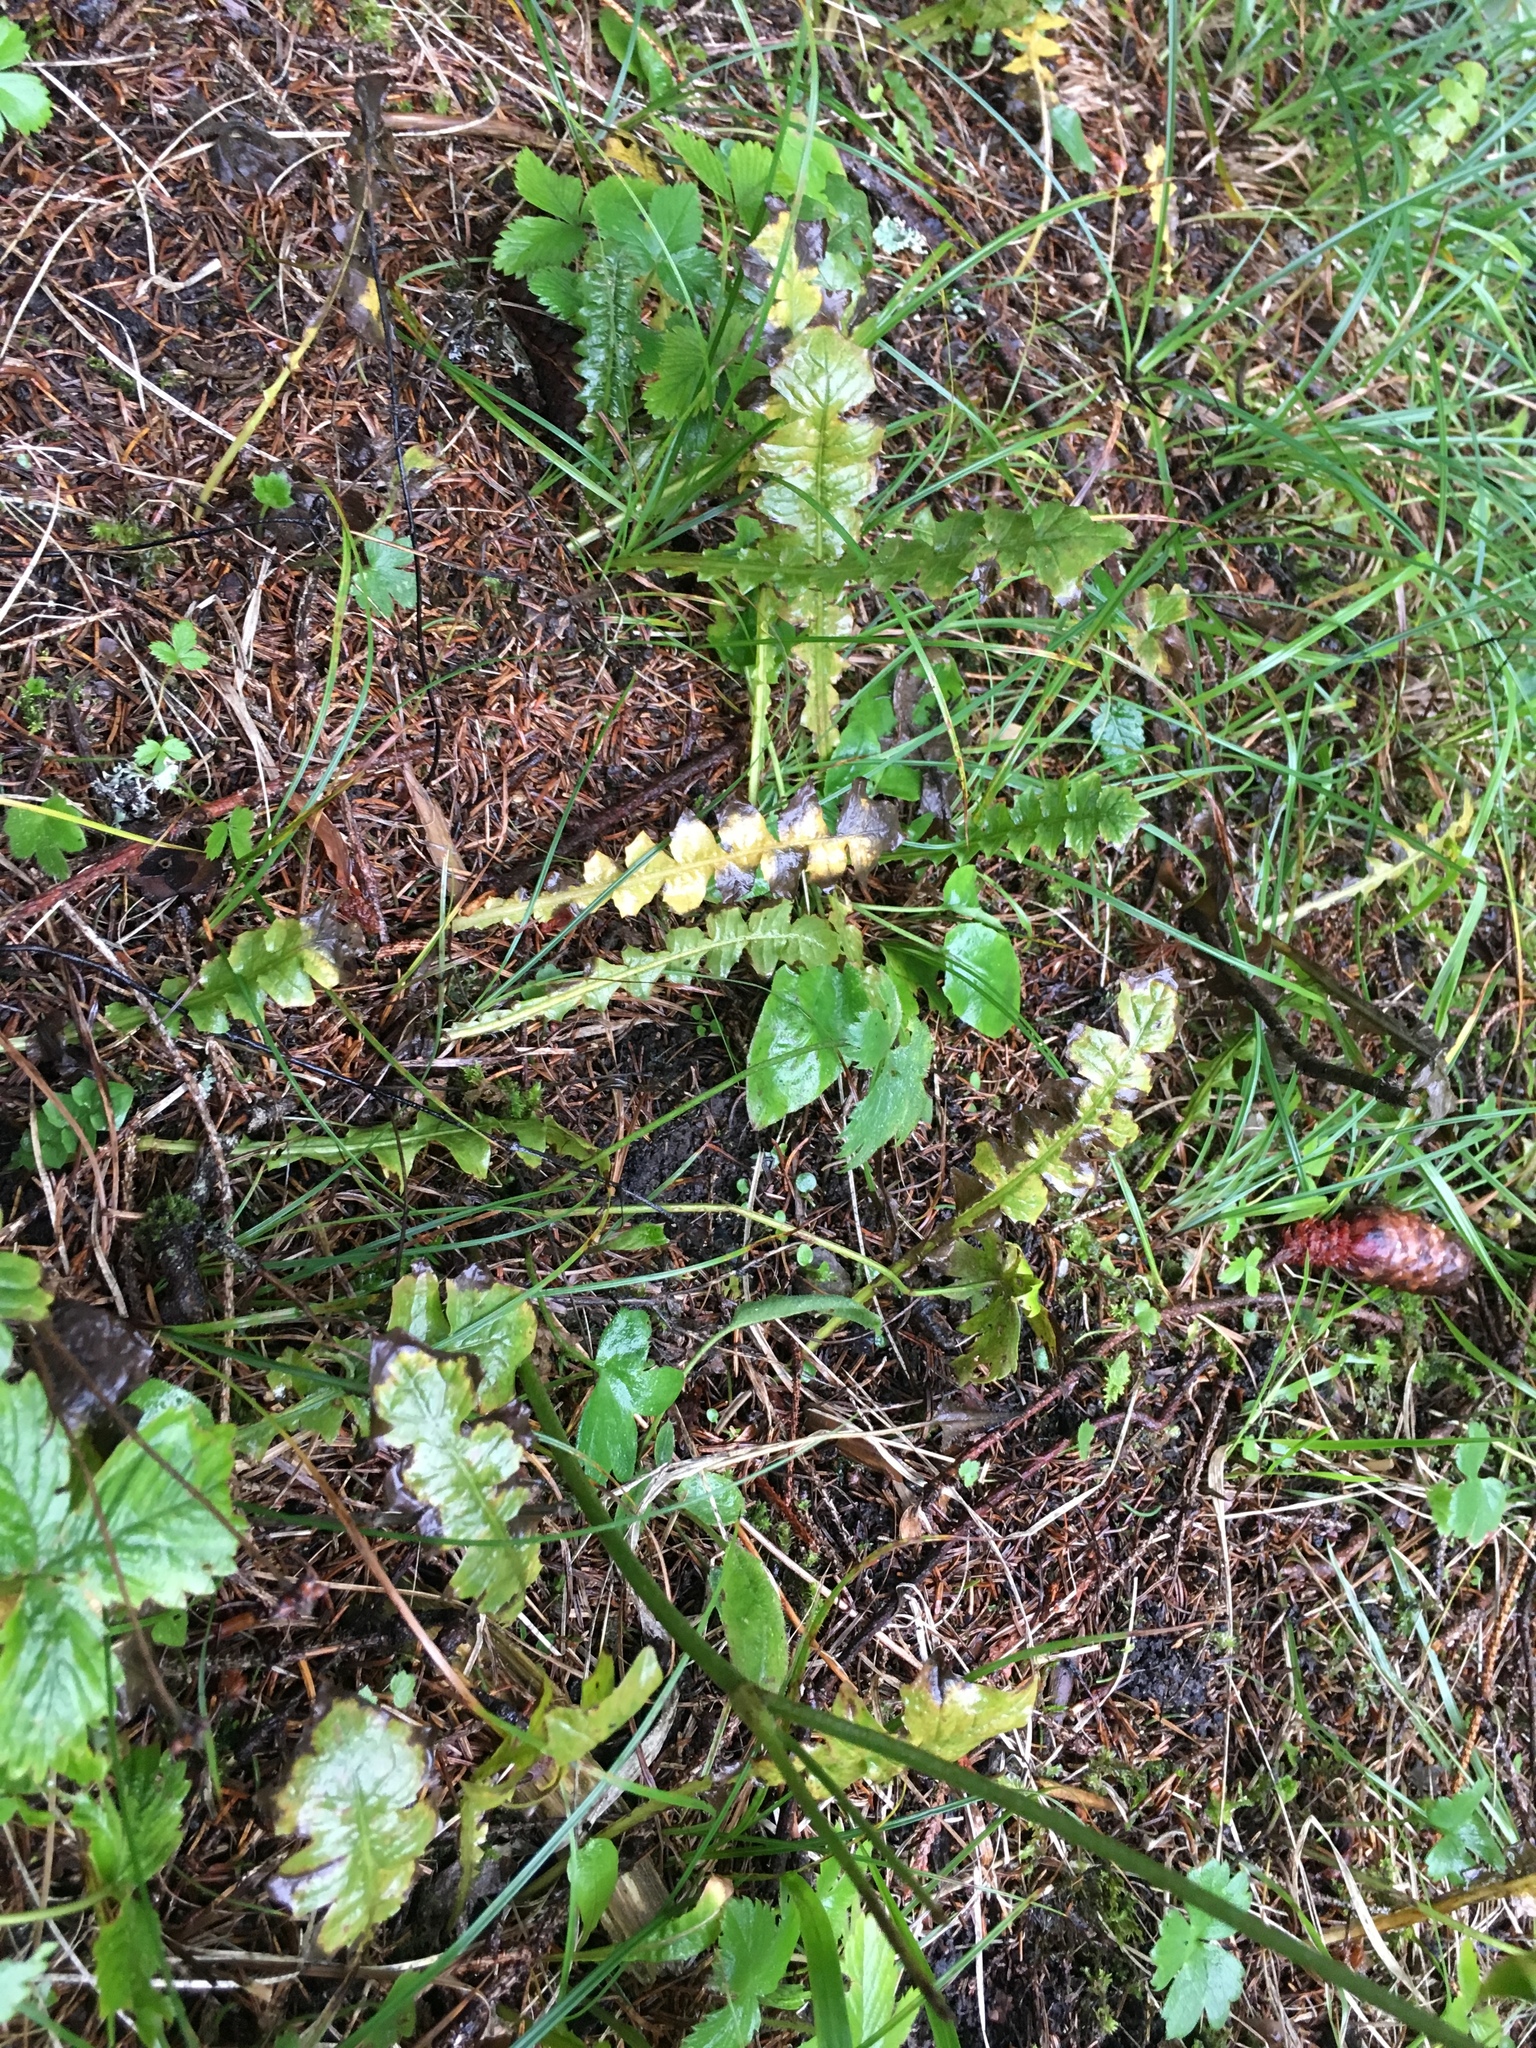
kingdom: Plantae
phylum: Tracheophyta
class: Magnoliopsida
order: Asterales
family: Asteraceae
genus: Aposeris
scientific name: Aposeris foetida
